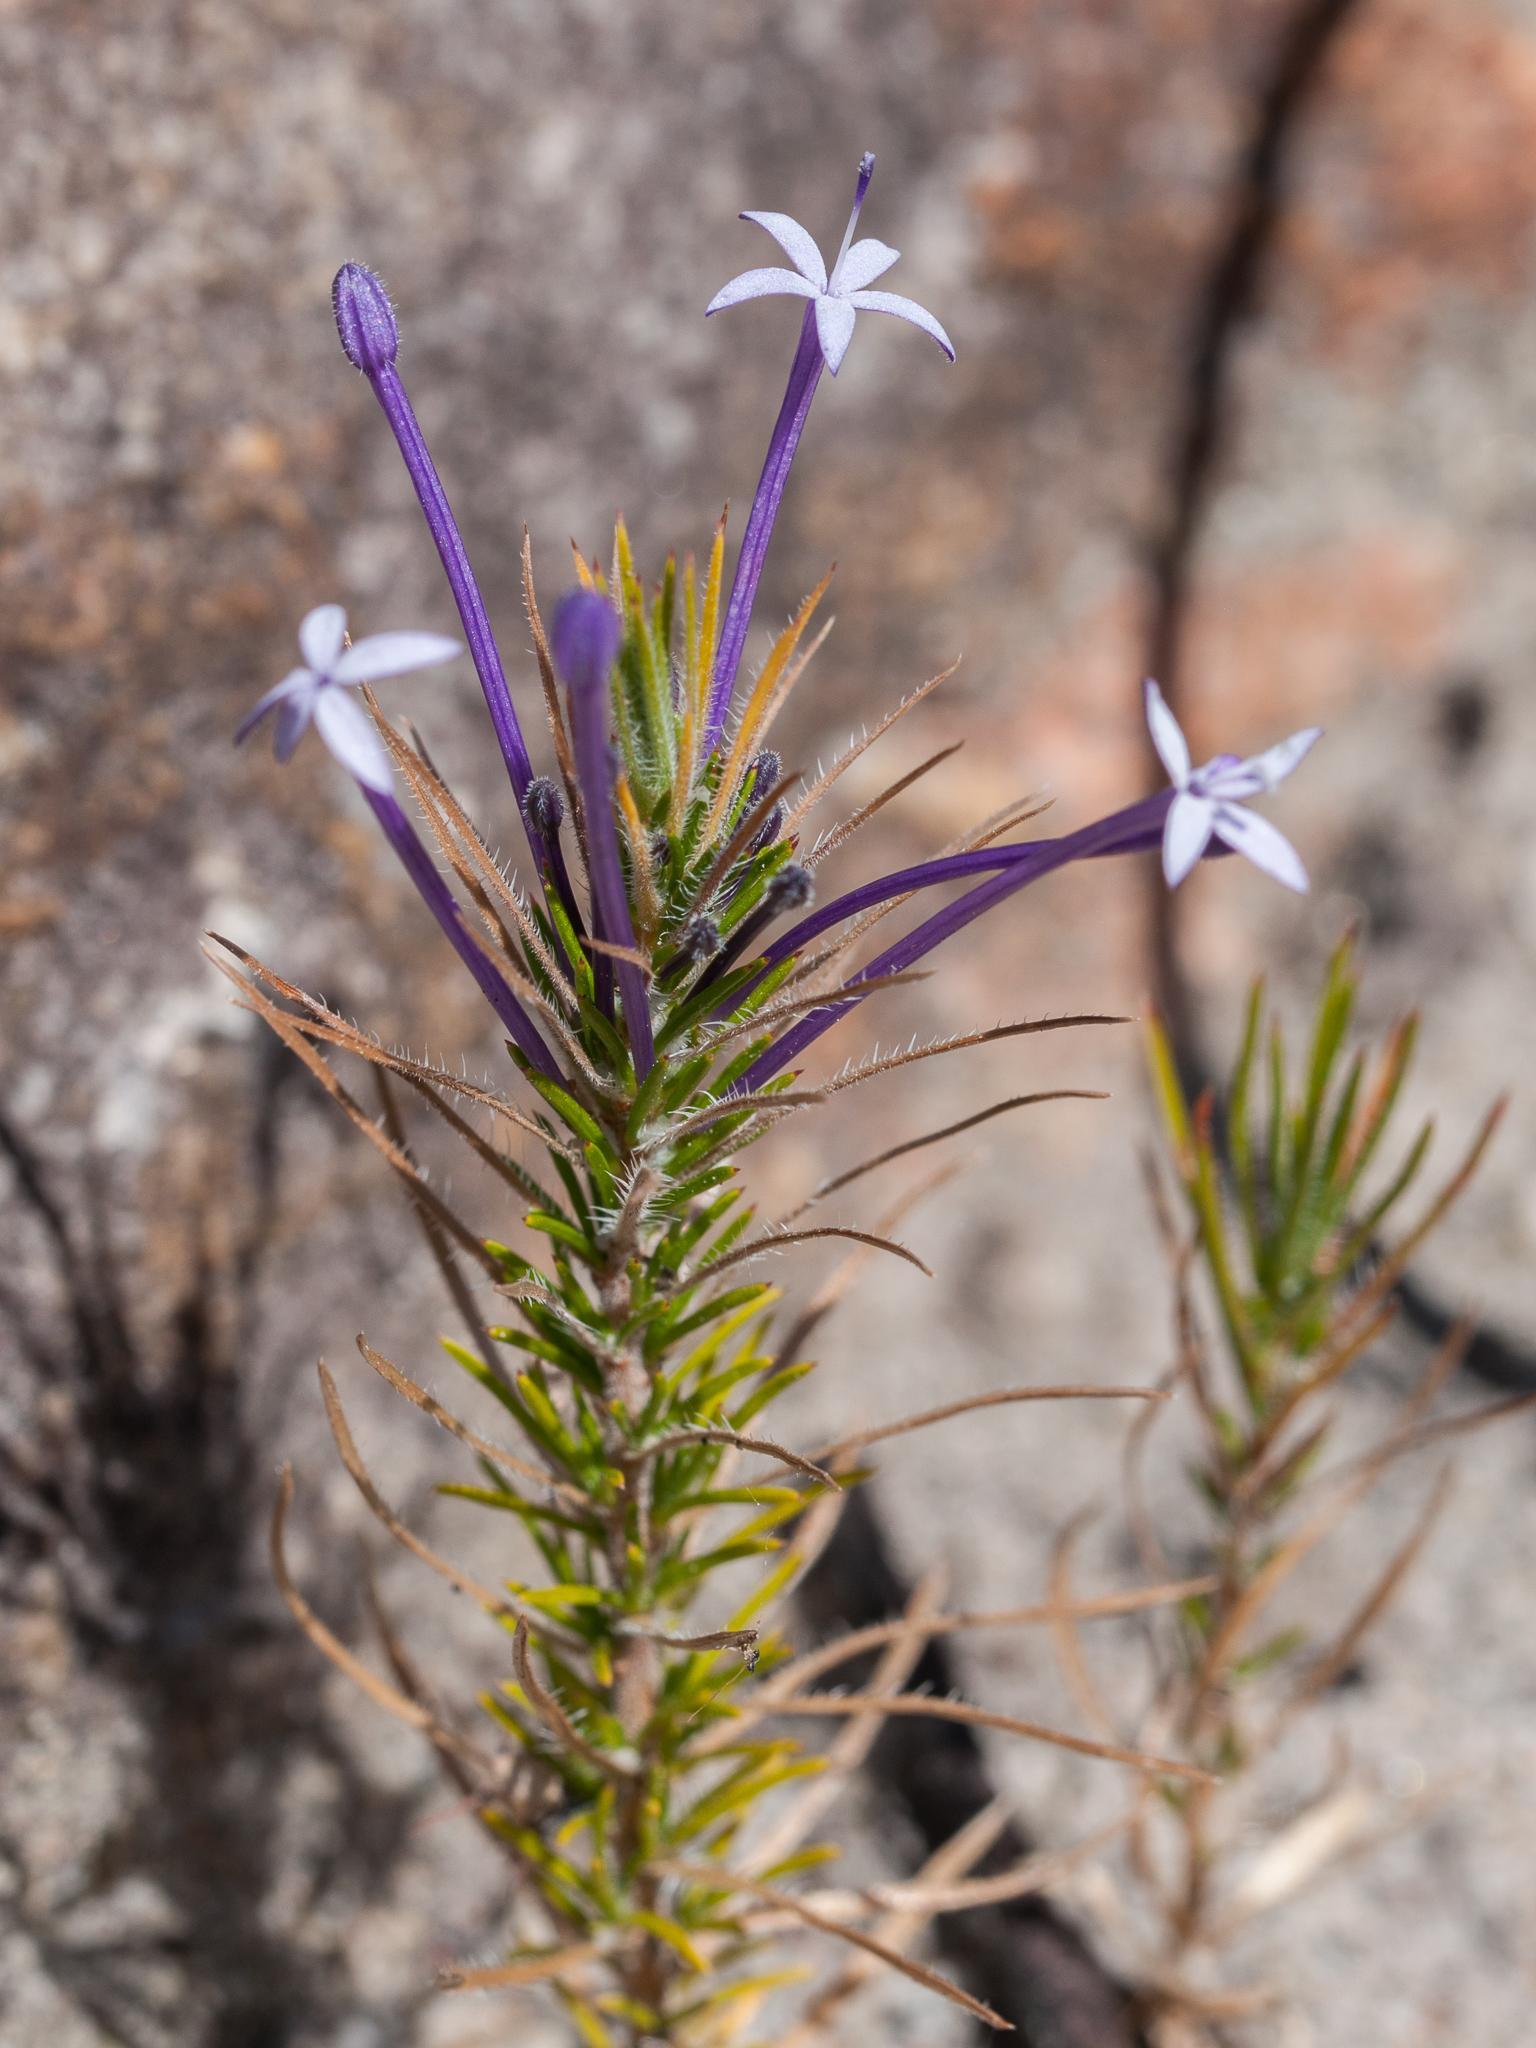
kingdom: Plantae
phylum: Tracheophyta
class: Magnoliopsida
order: Asterales
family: Campanulaceae
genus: Merciera
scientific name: Merciera tenuifolia
